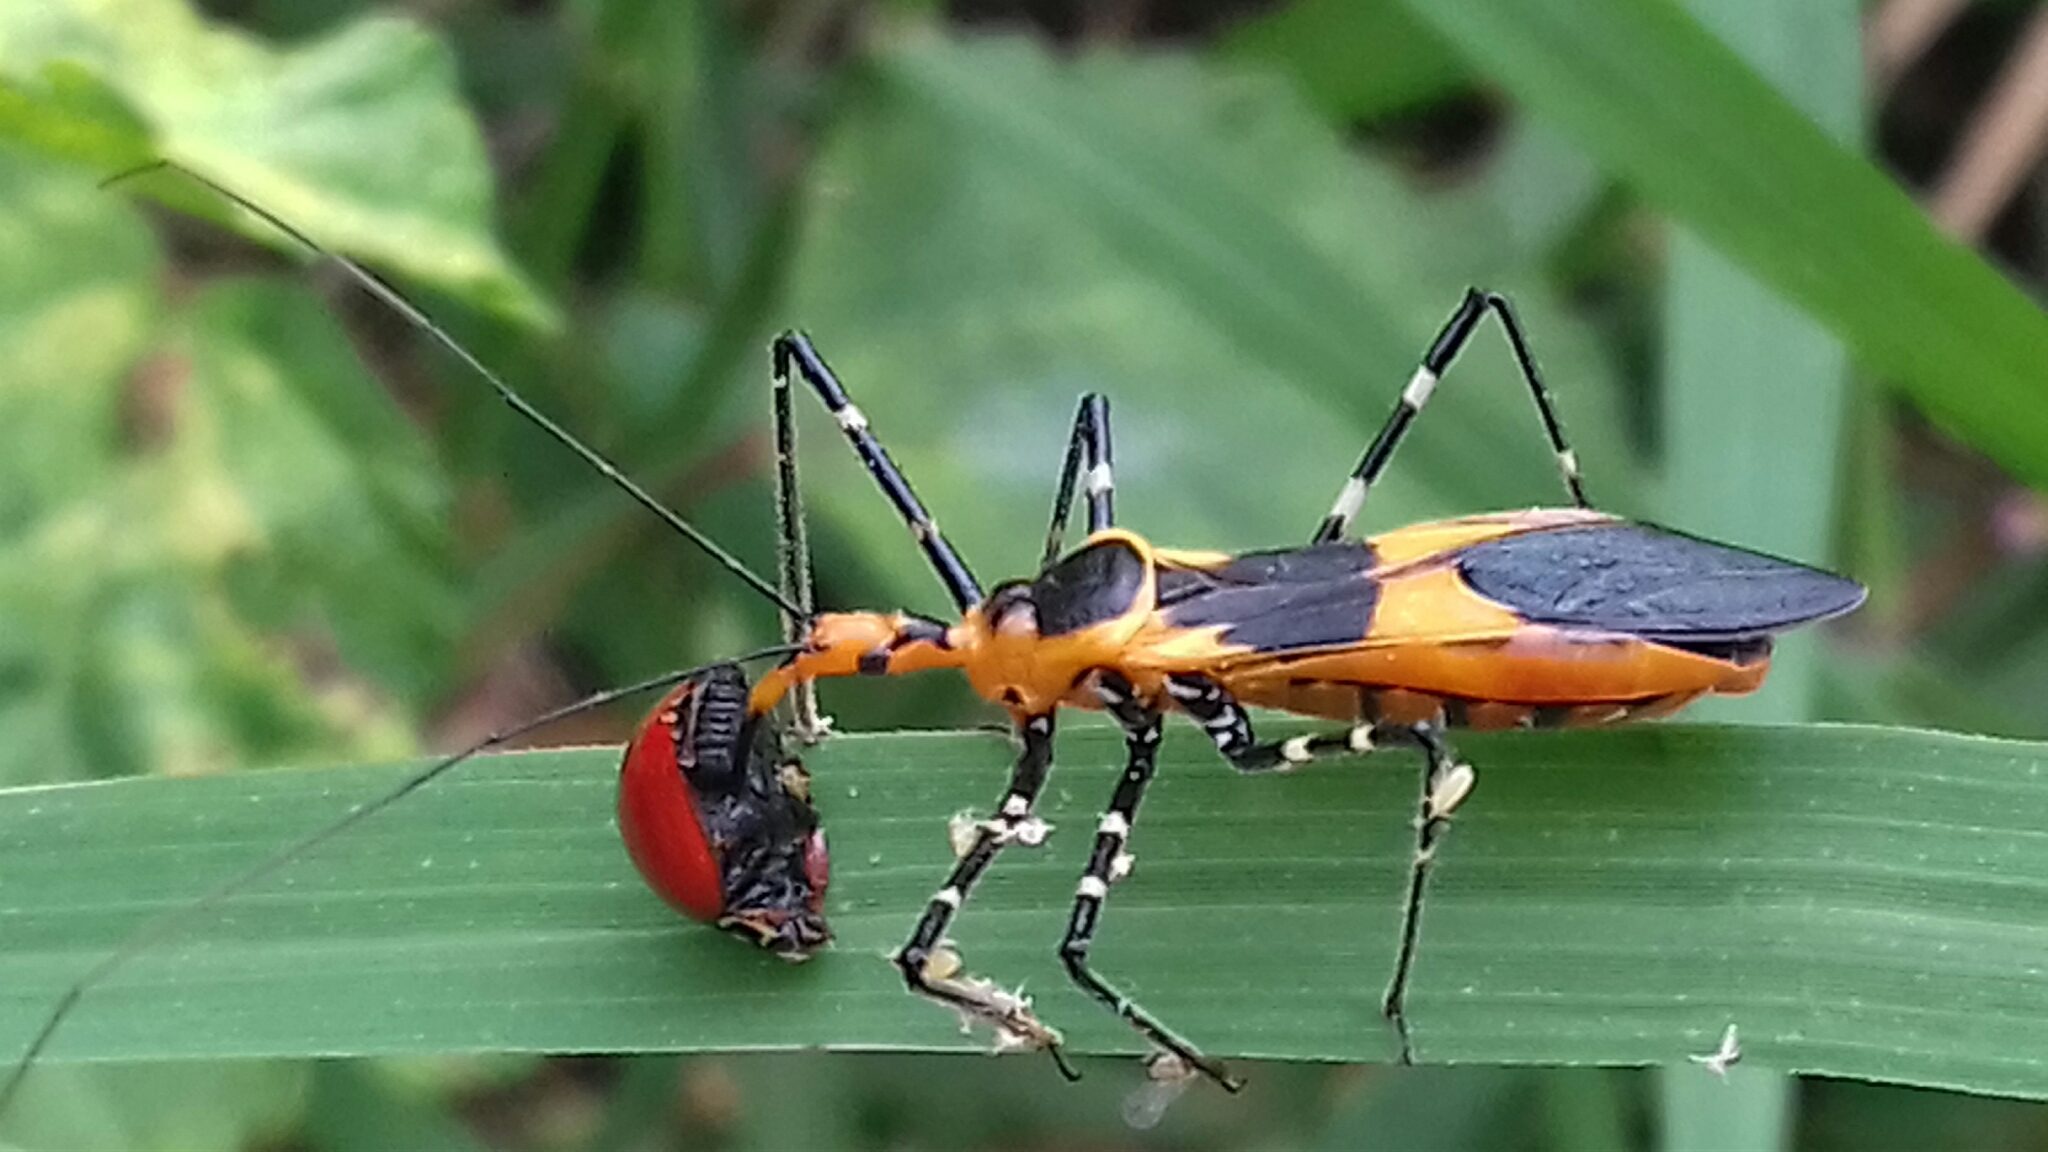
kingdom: Animalia
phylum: Arthropoda
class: Insecta
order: Hemiptera
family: Reduviidae
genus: Zelus
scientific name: Zelus longipes
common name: Milkweed assassin bug
